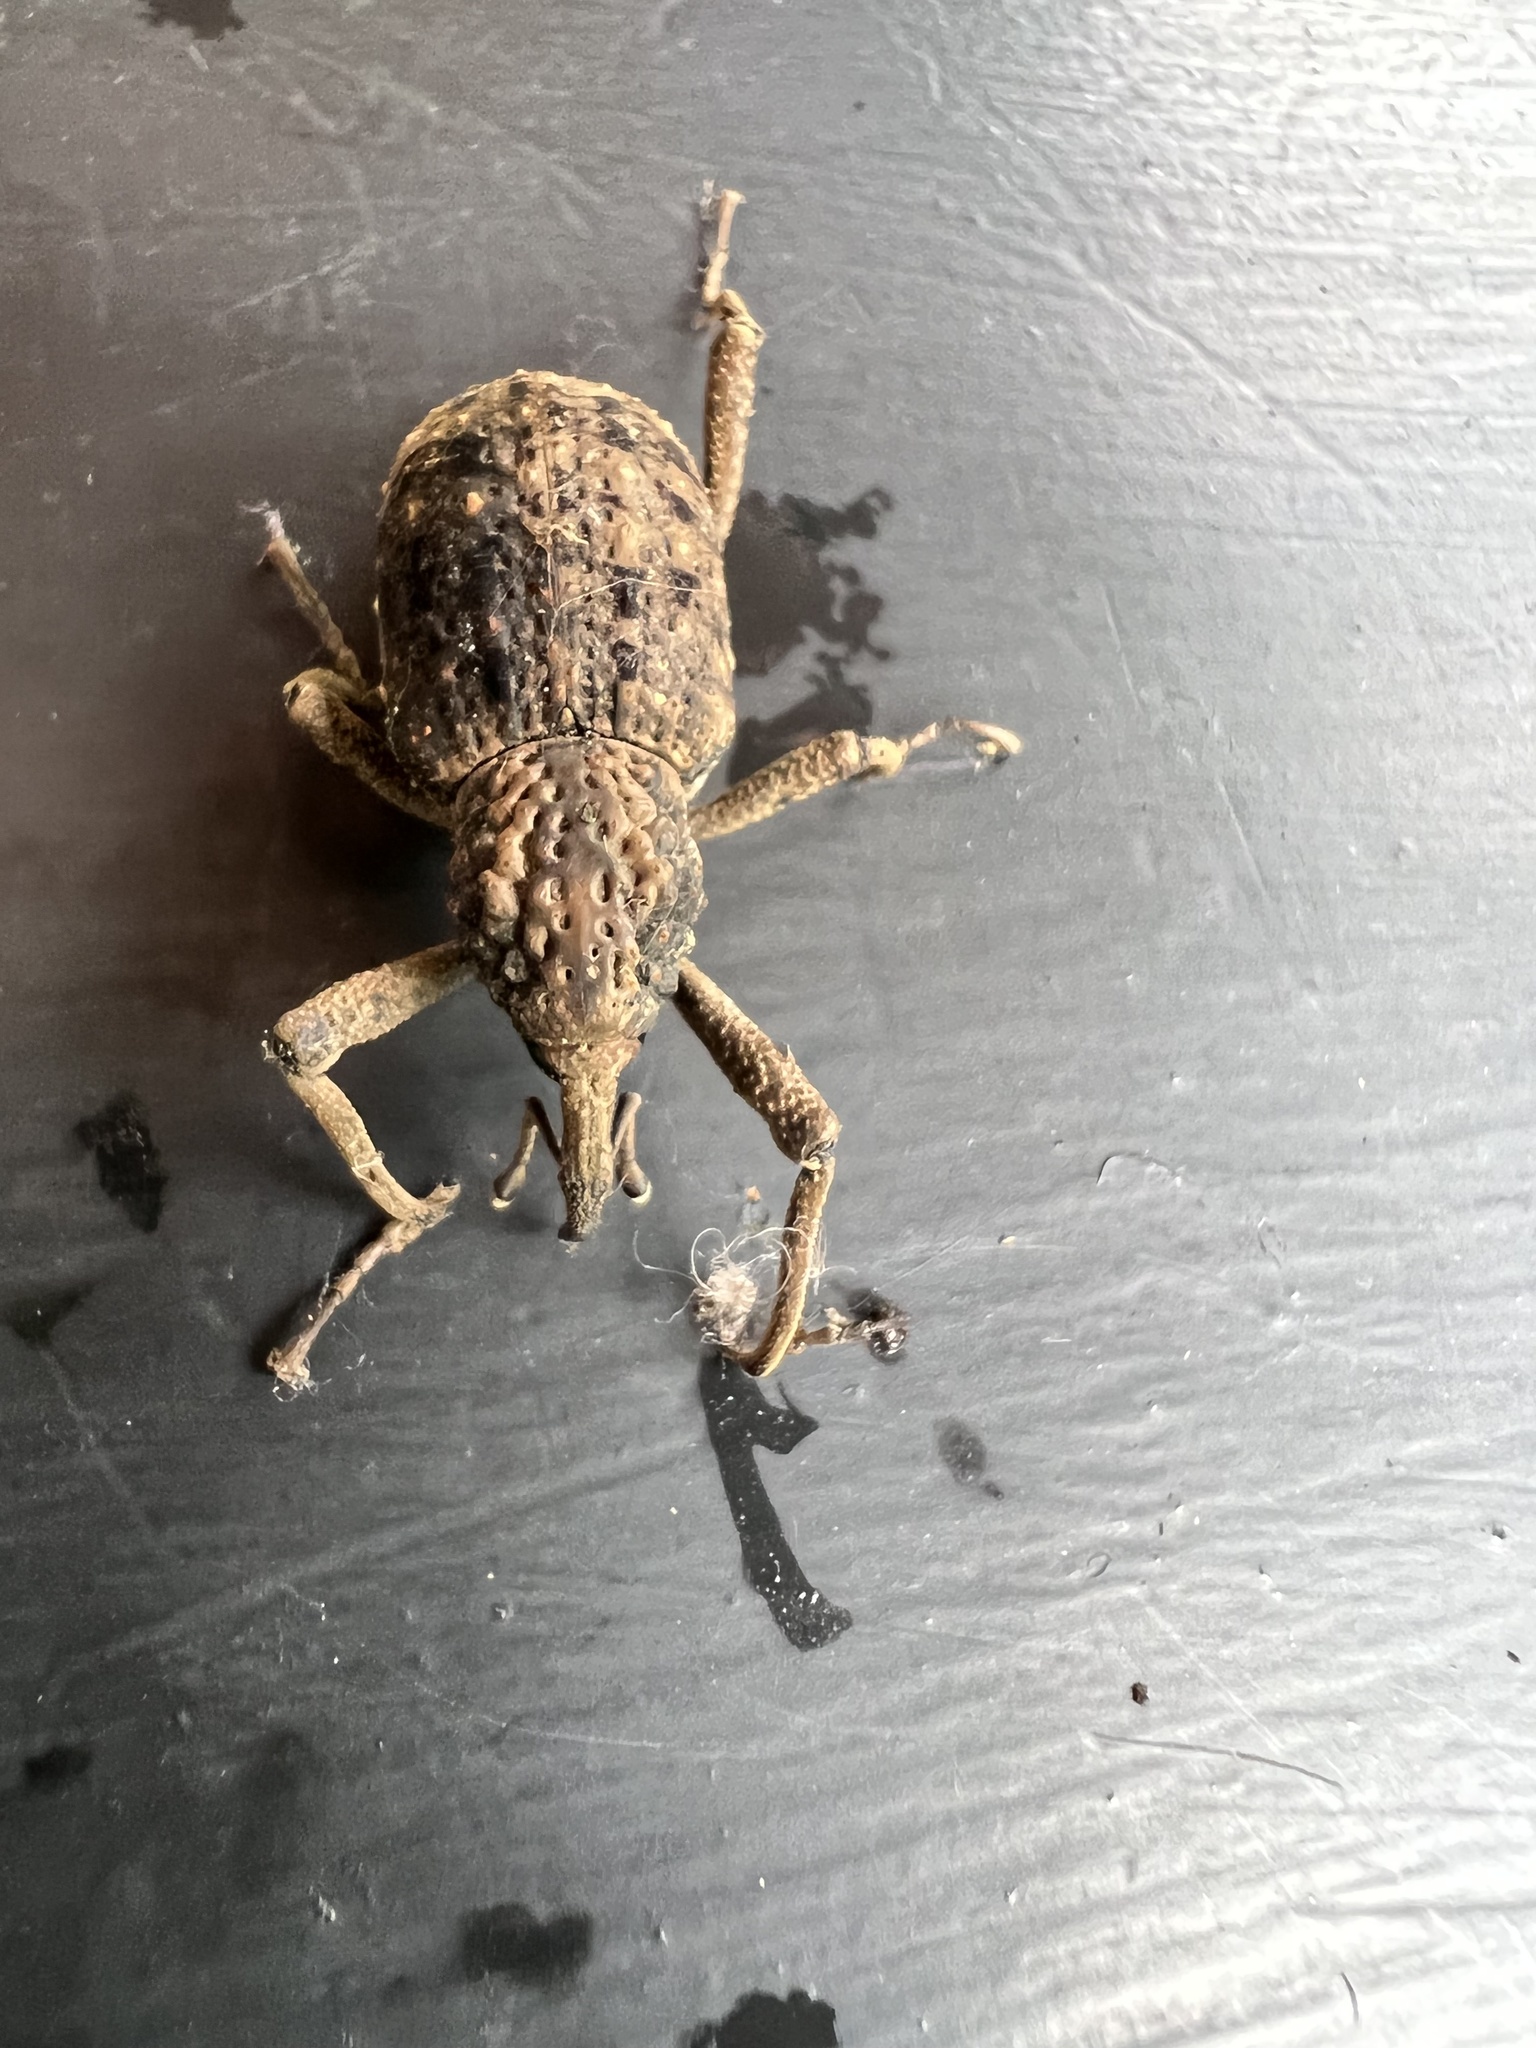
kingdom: Animalia
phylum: Arthropoda
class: Insecta
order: Coleoptera
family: Dryophthoridae
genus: Sipalinus
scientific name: Sipalinus gigas
